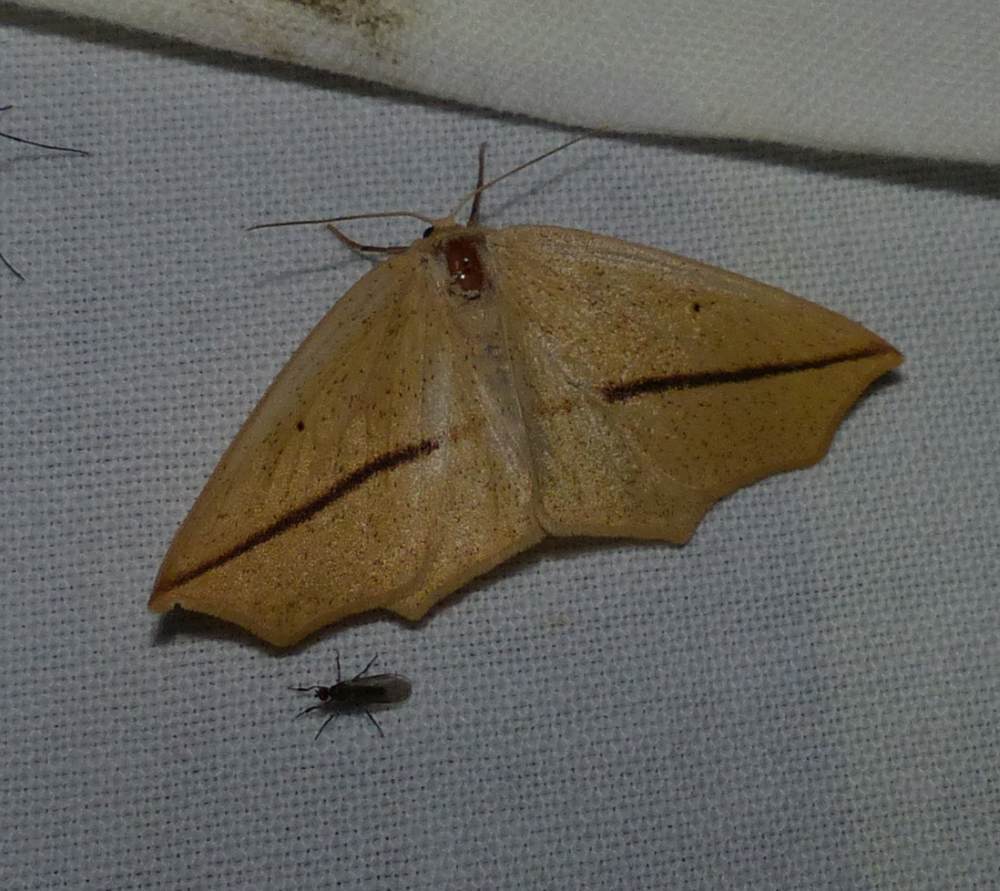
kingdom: Animalia
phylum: Arthropoda
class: Insecta
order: Lepidoptera
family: Geometridae
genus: Tetracis
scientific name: Tetracis crocallata
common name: Yellow slant-line
